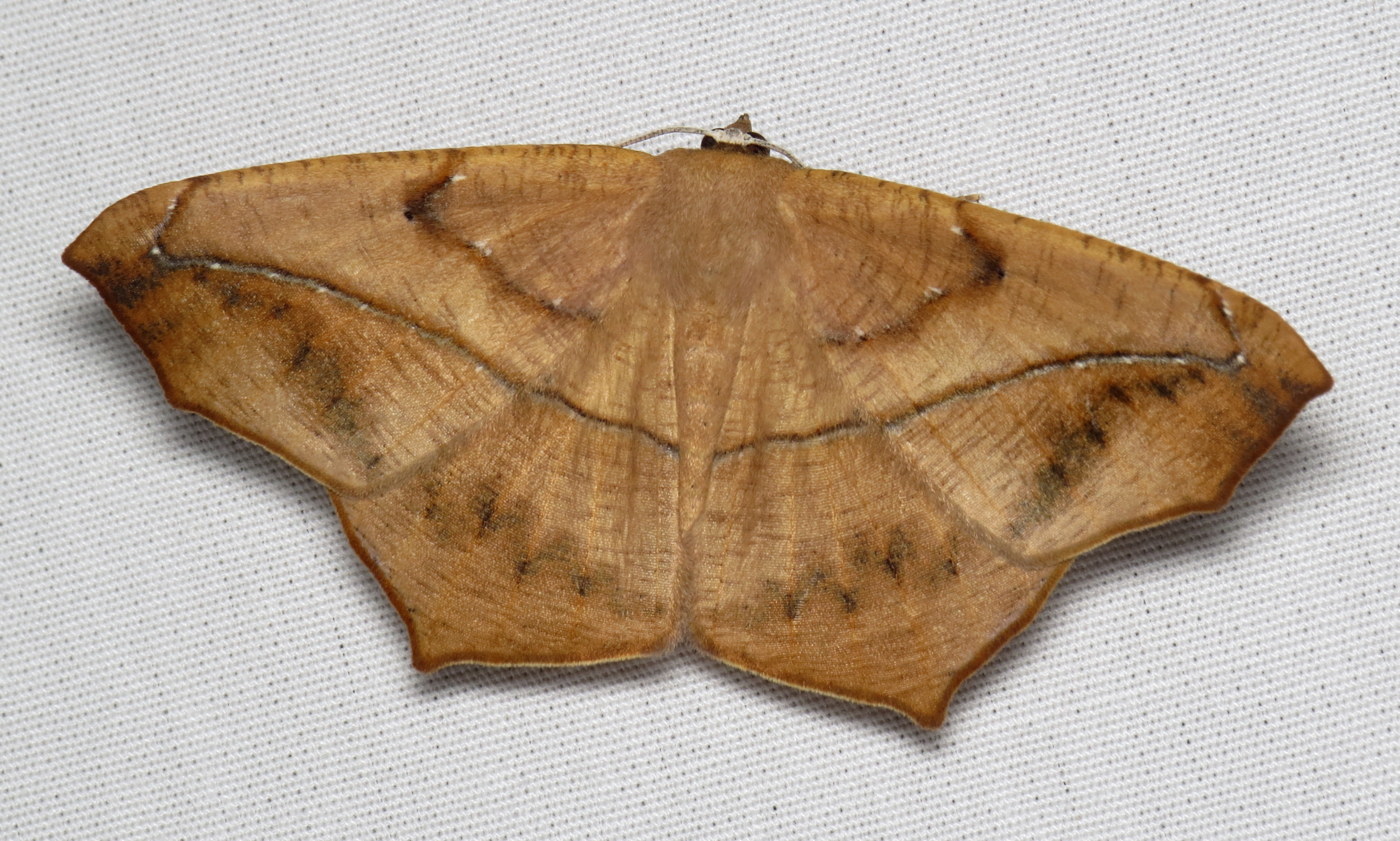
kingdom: Animalia
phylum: Arthropoda
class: Insecta
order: Lepidoptera
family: Geometridae
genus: Prochoerodes
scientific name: Prochoerodes lineola
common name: Large maple spanworm
